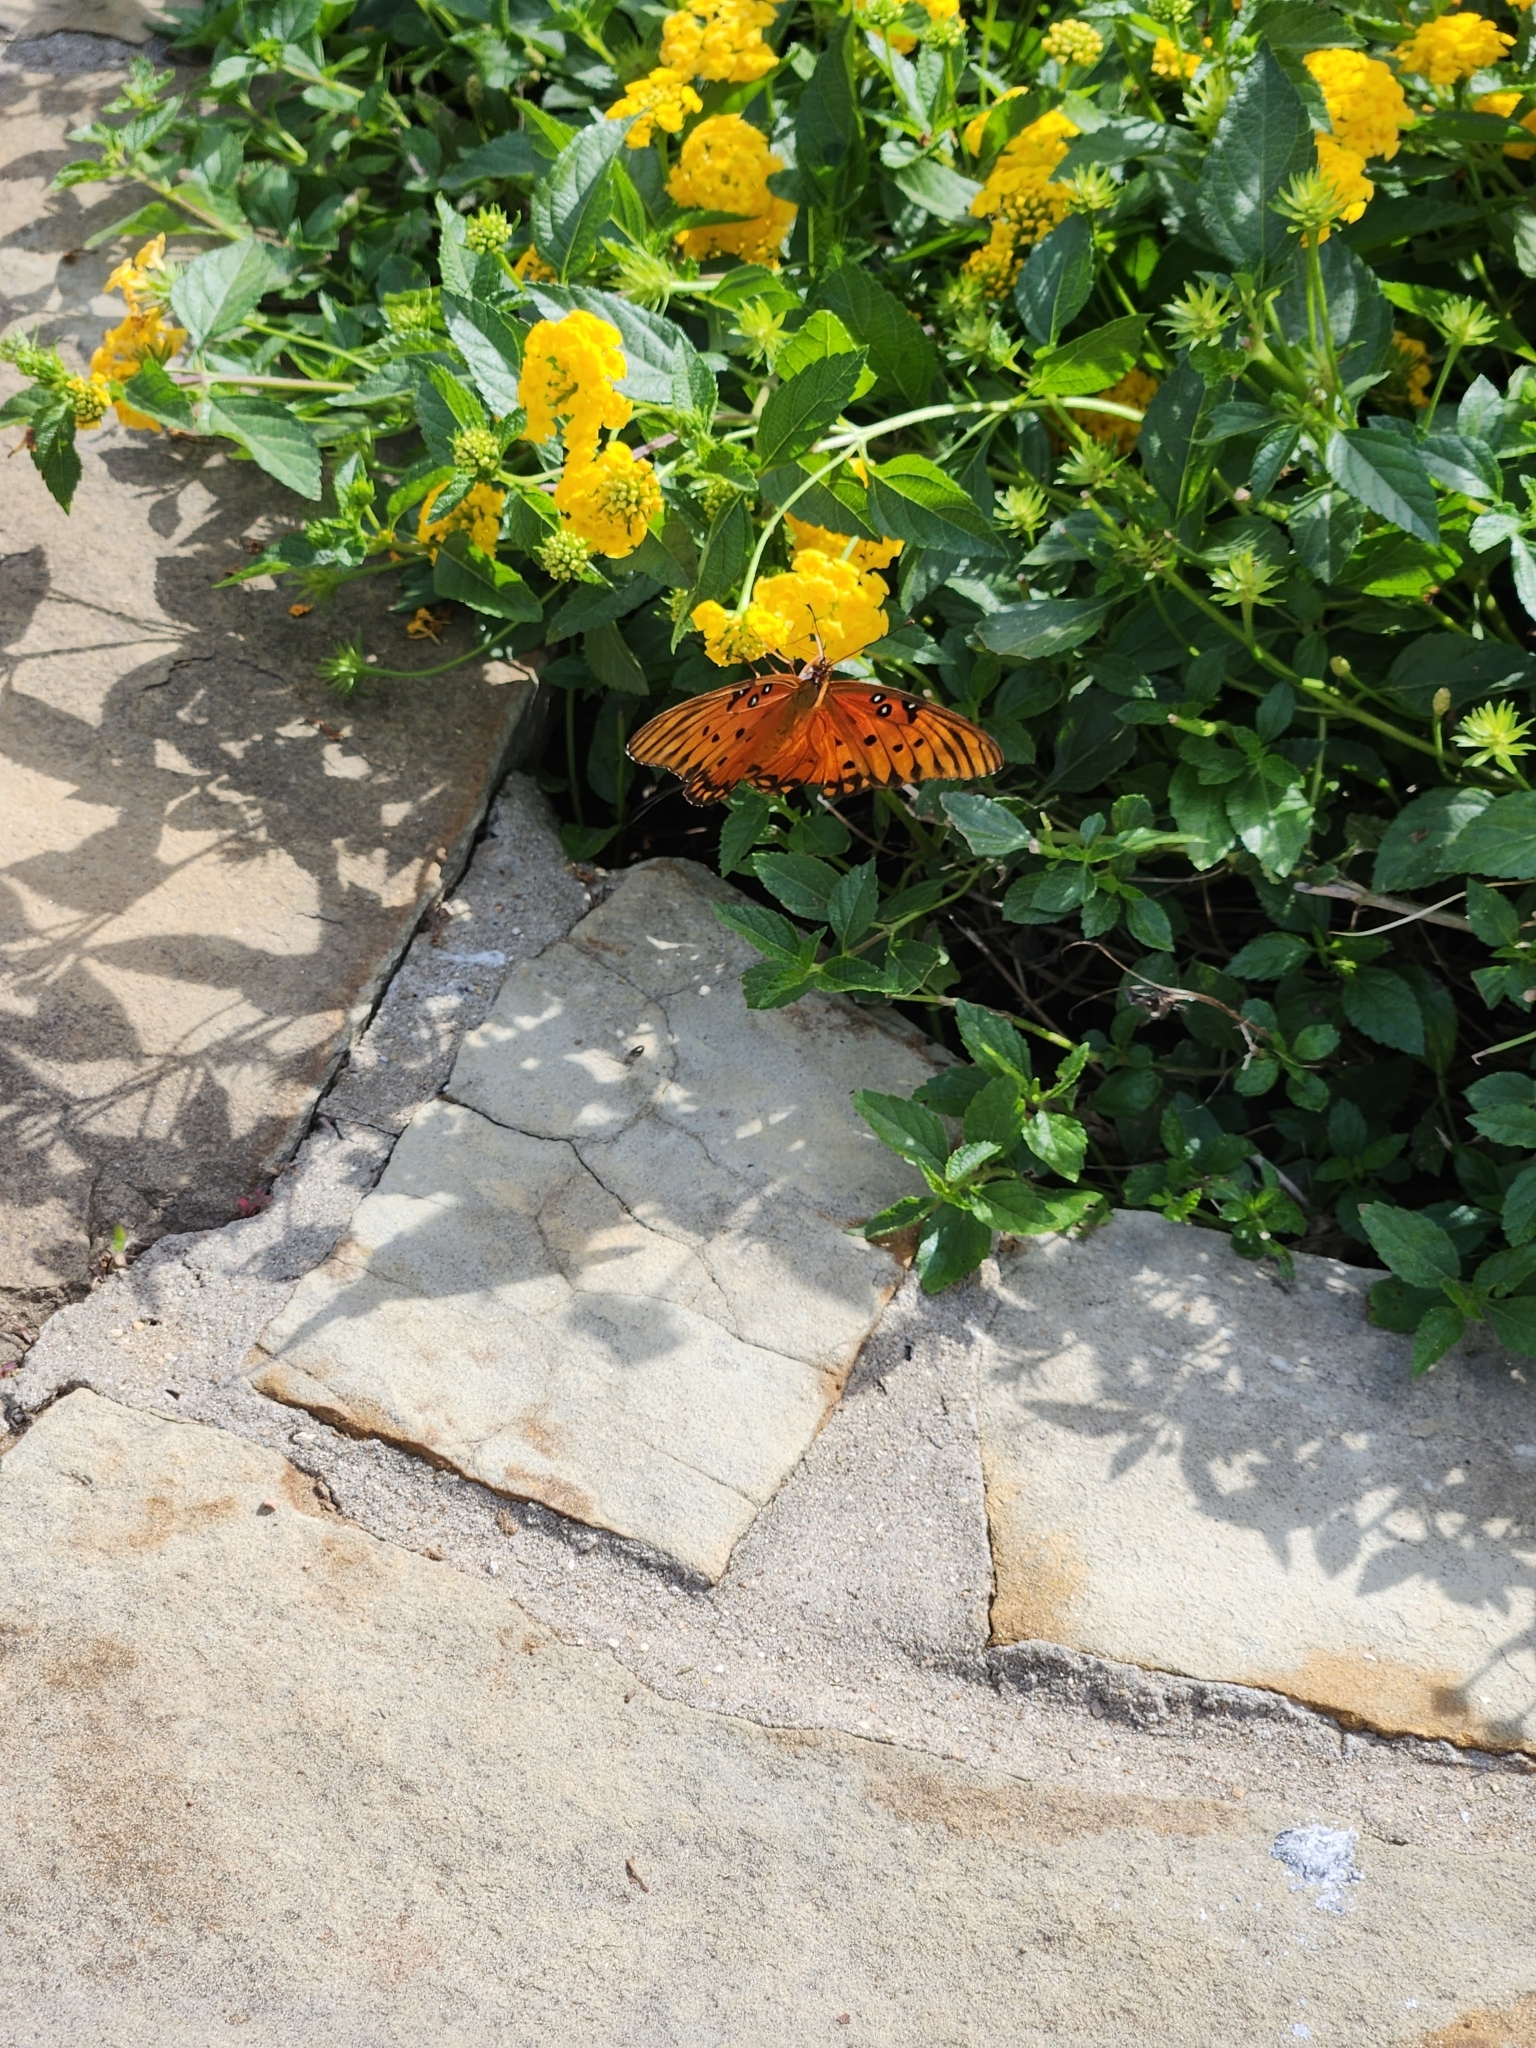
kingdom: Animalia
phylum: Arthropoda
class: Insecta
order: Lepidoptera
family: Nymphalidae
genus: Dione
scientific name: Dione vanillae
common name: Gulf fritillary
